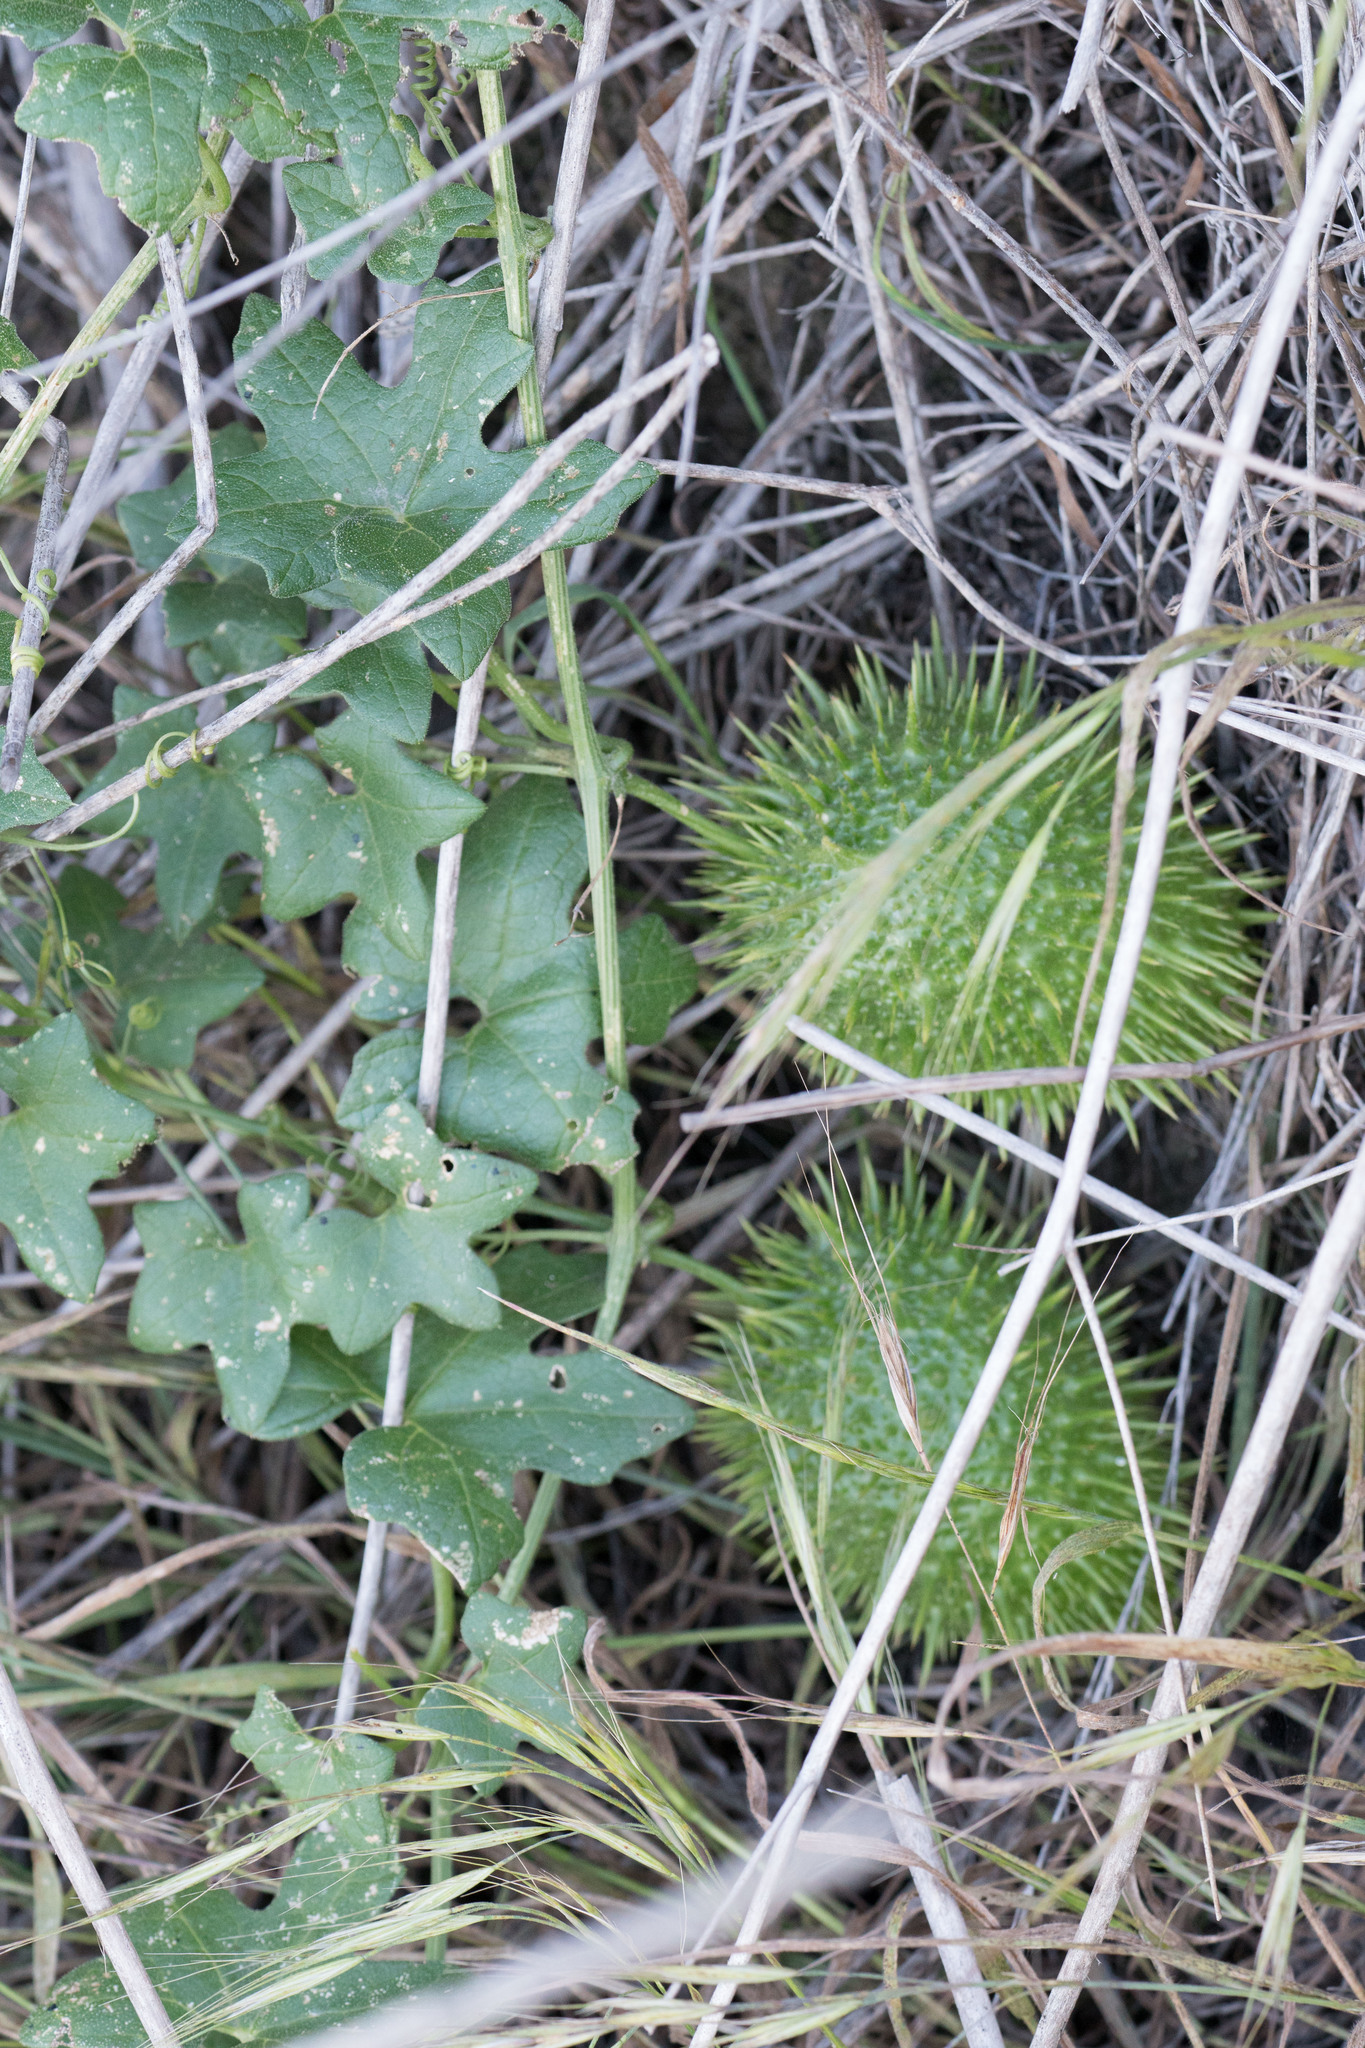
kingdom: Plantae
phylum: Tracheophyta
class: Magnoliopsida
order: Cucurbitales
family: Cucurbitaceae
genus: Marah
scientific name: Marah macrocarpa
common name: Cucamonga manroot
